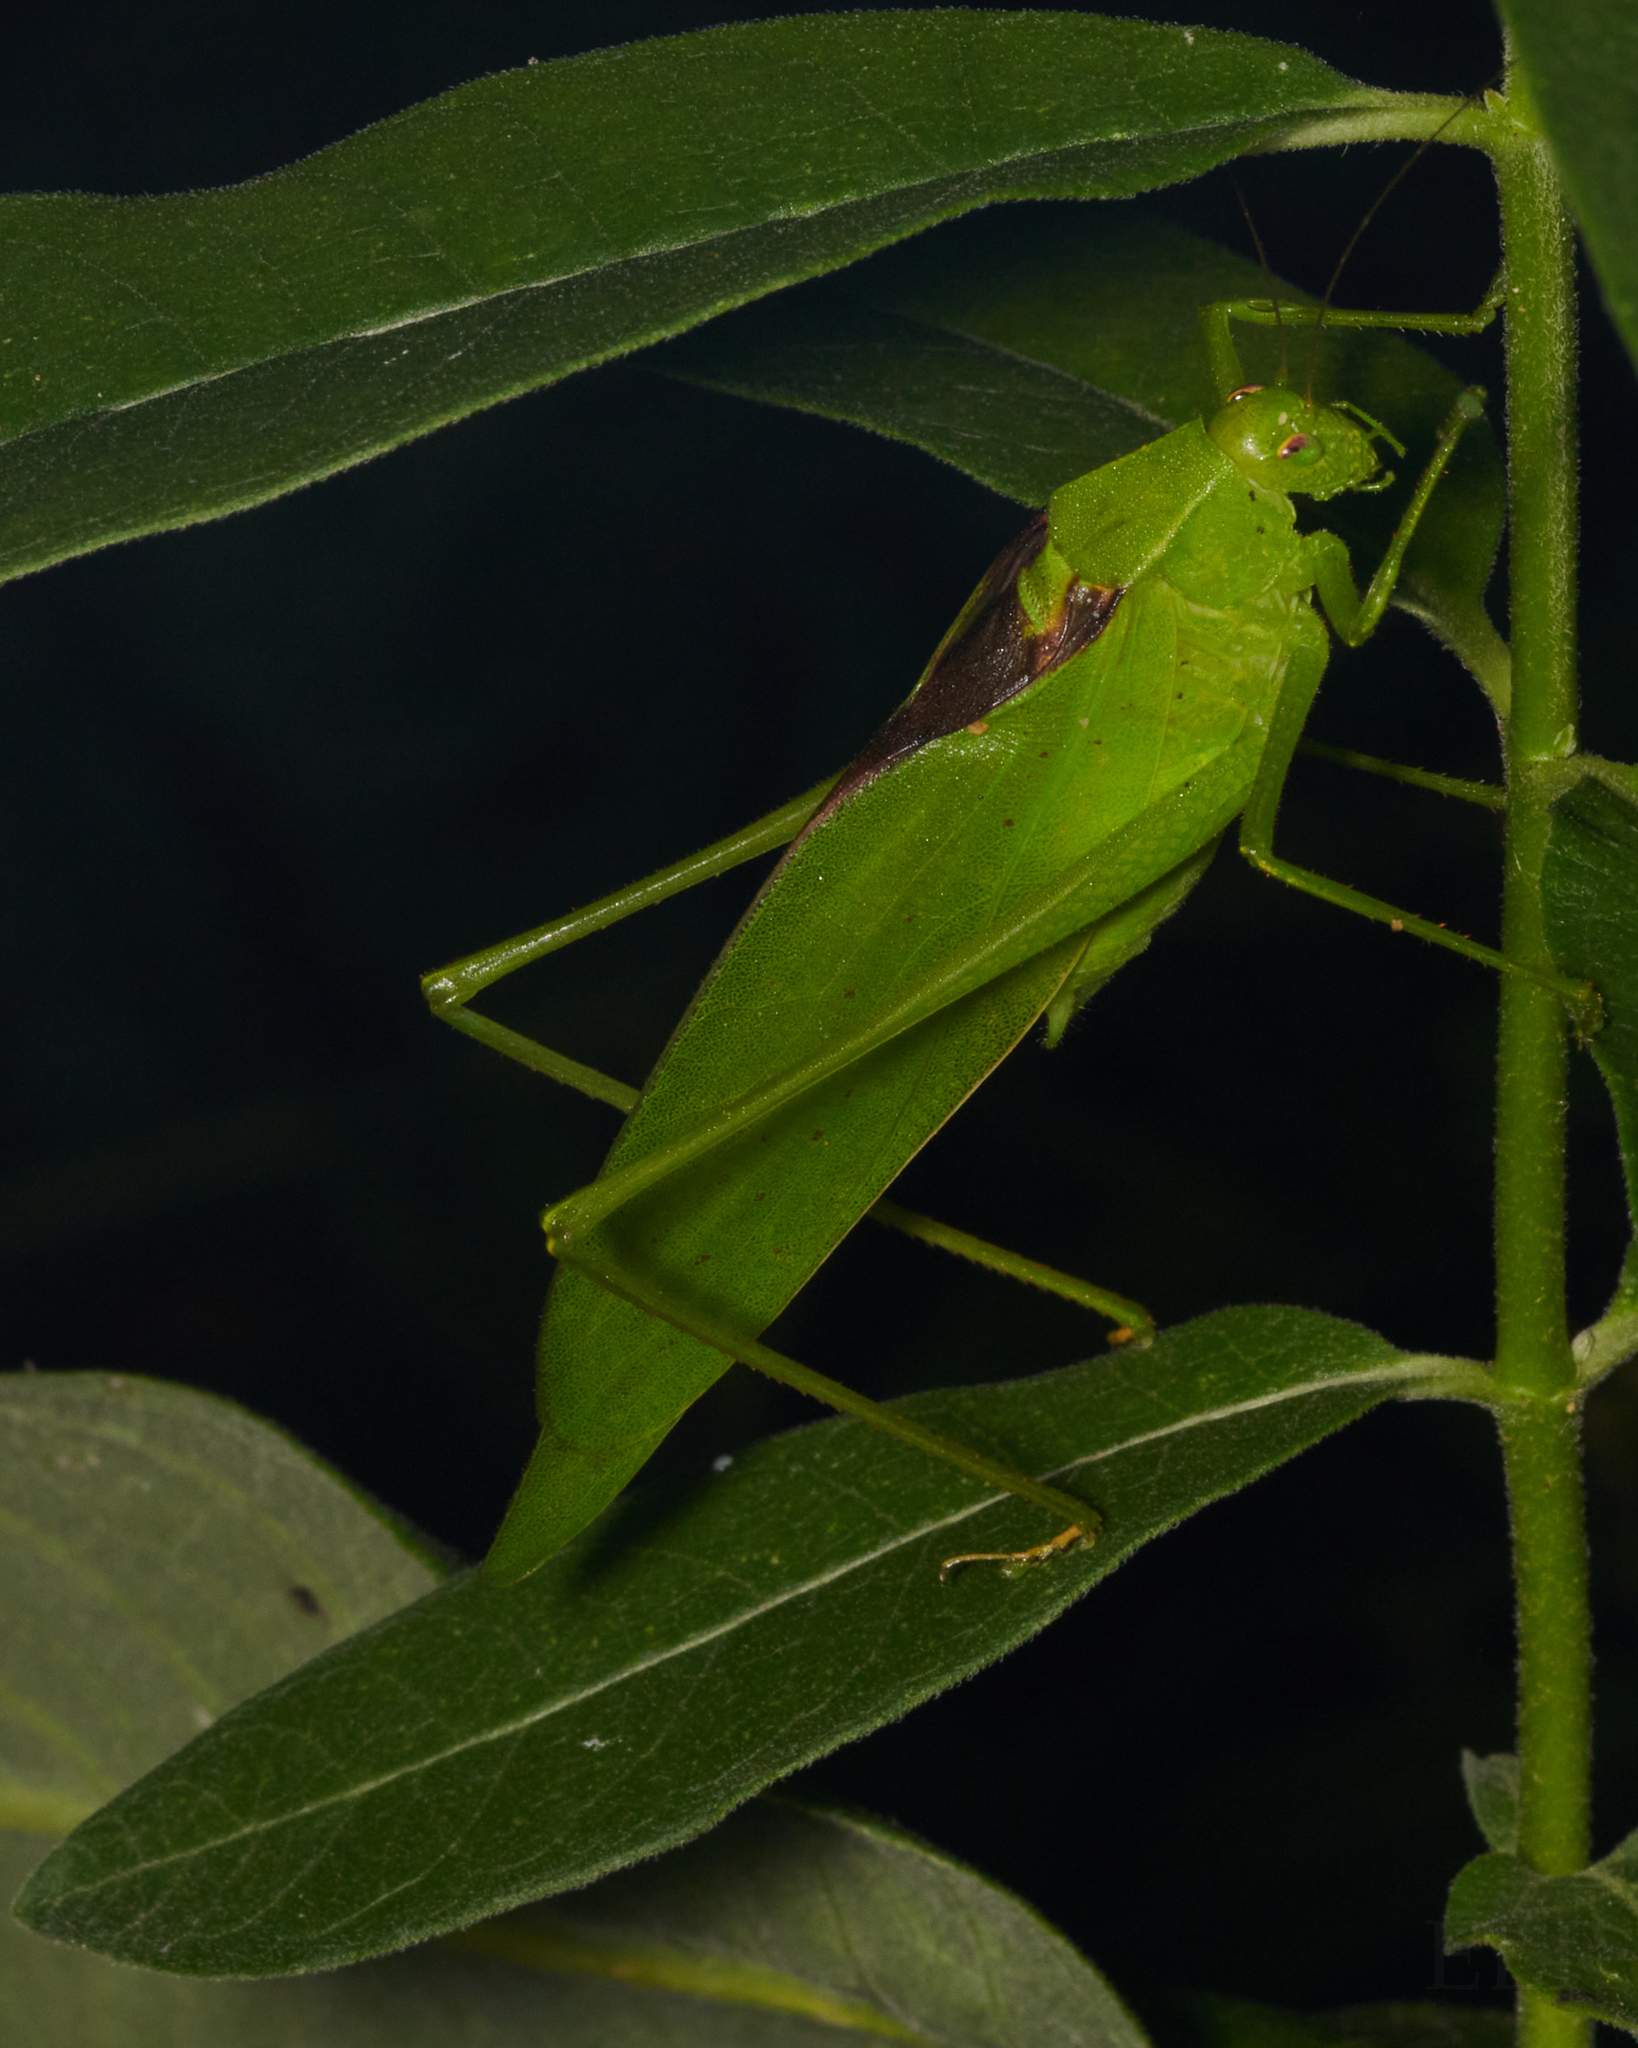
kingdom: Animalia
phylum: Arthropoda
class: Insecta
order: Orthoptera
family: Tettigoniidae
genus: Amblycorypha
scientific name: Amblycorypha oblongifolia
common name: Oblong-winged katydid
